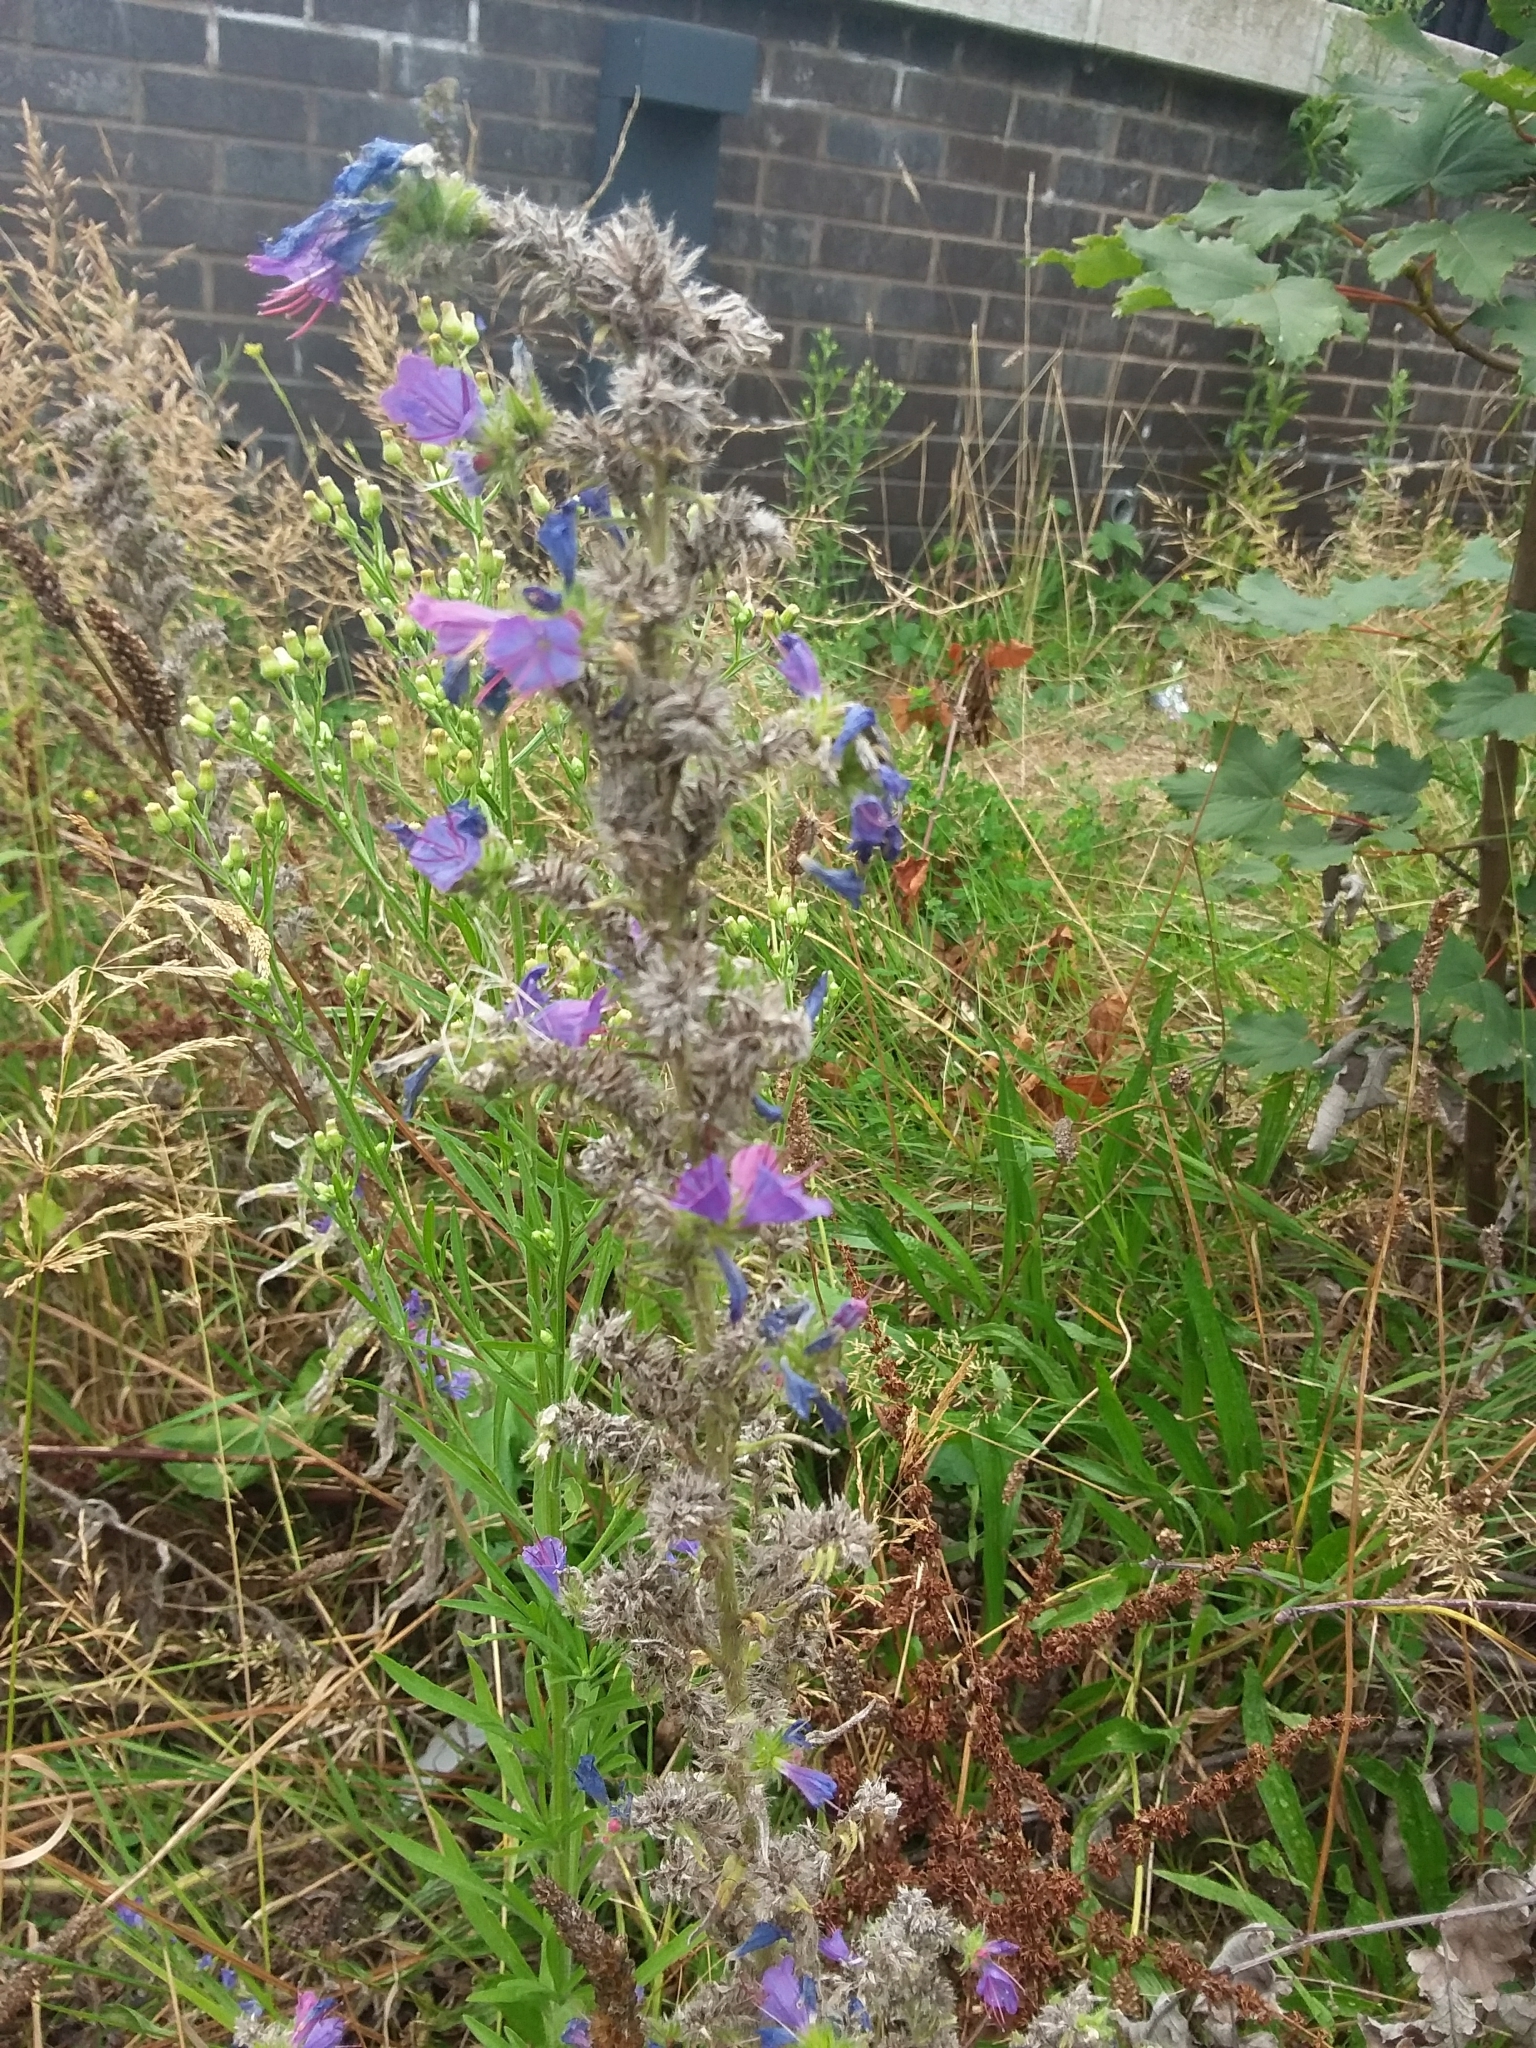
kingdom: Plantae
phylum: Tracheophyta
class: Magnoliopsida
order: Boraginales
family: Boraginaceae
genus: Echium
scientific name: Echium vulgare
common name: Common viper's bugloss
